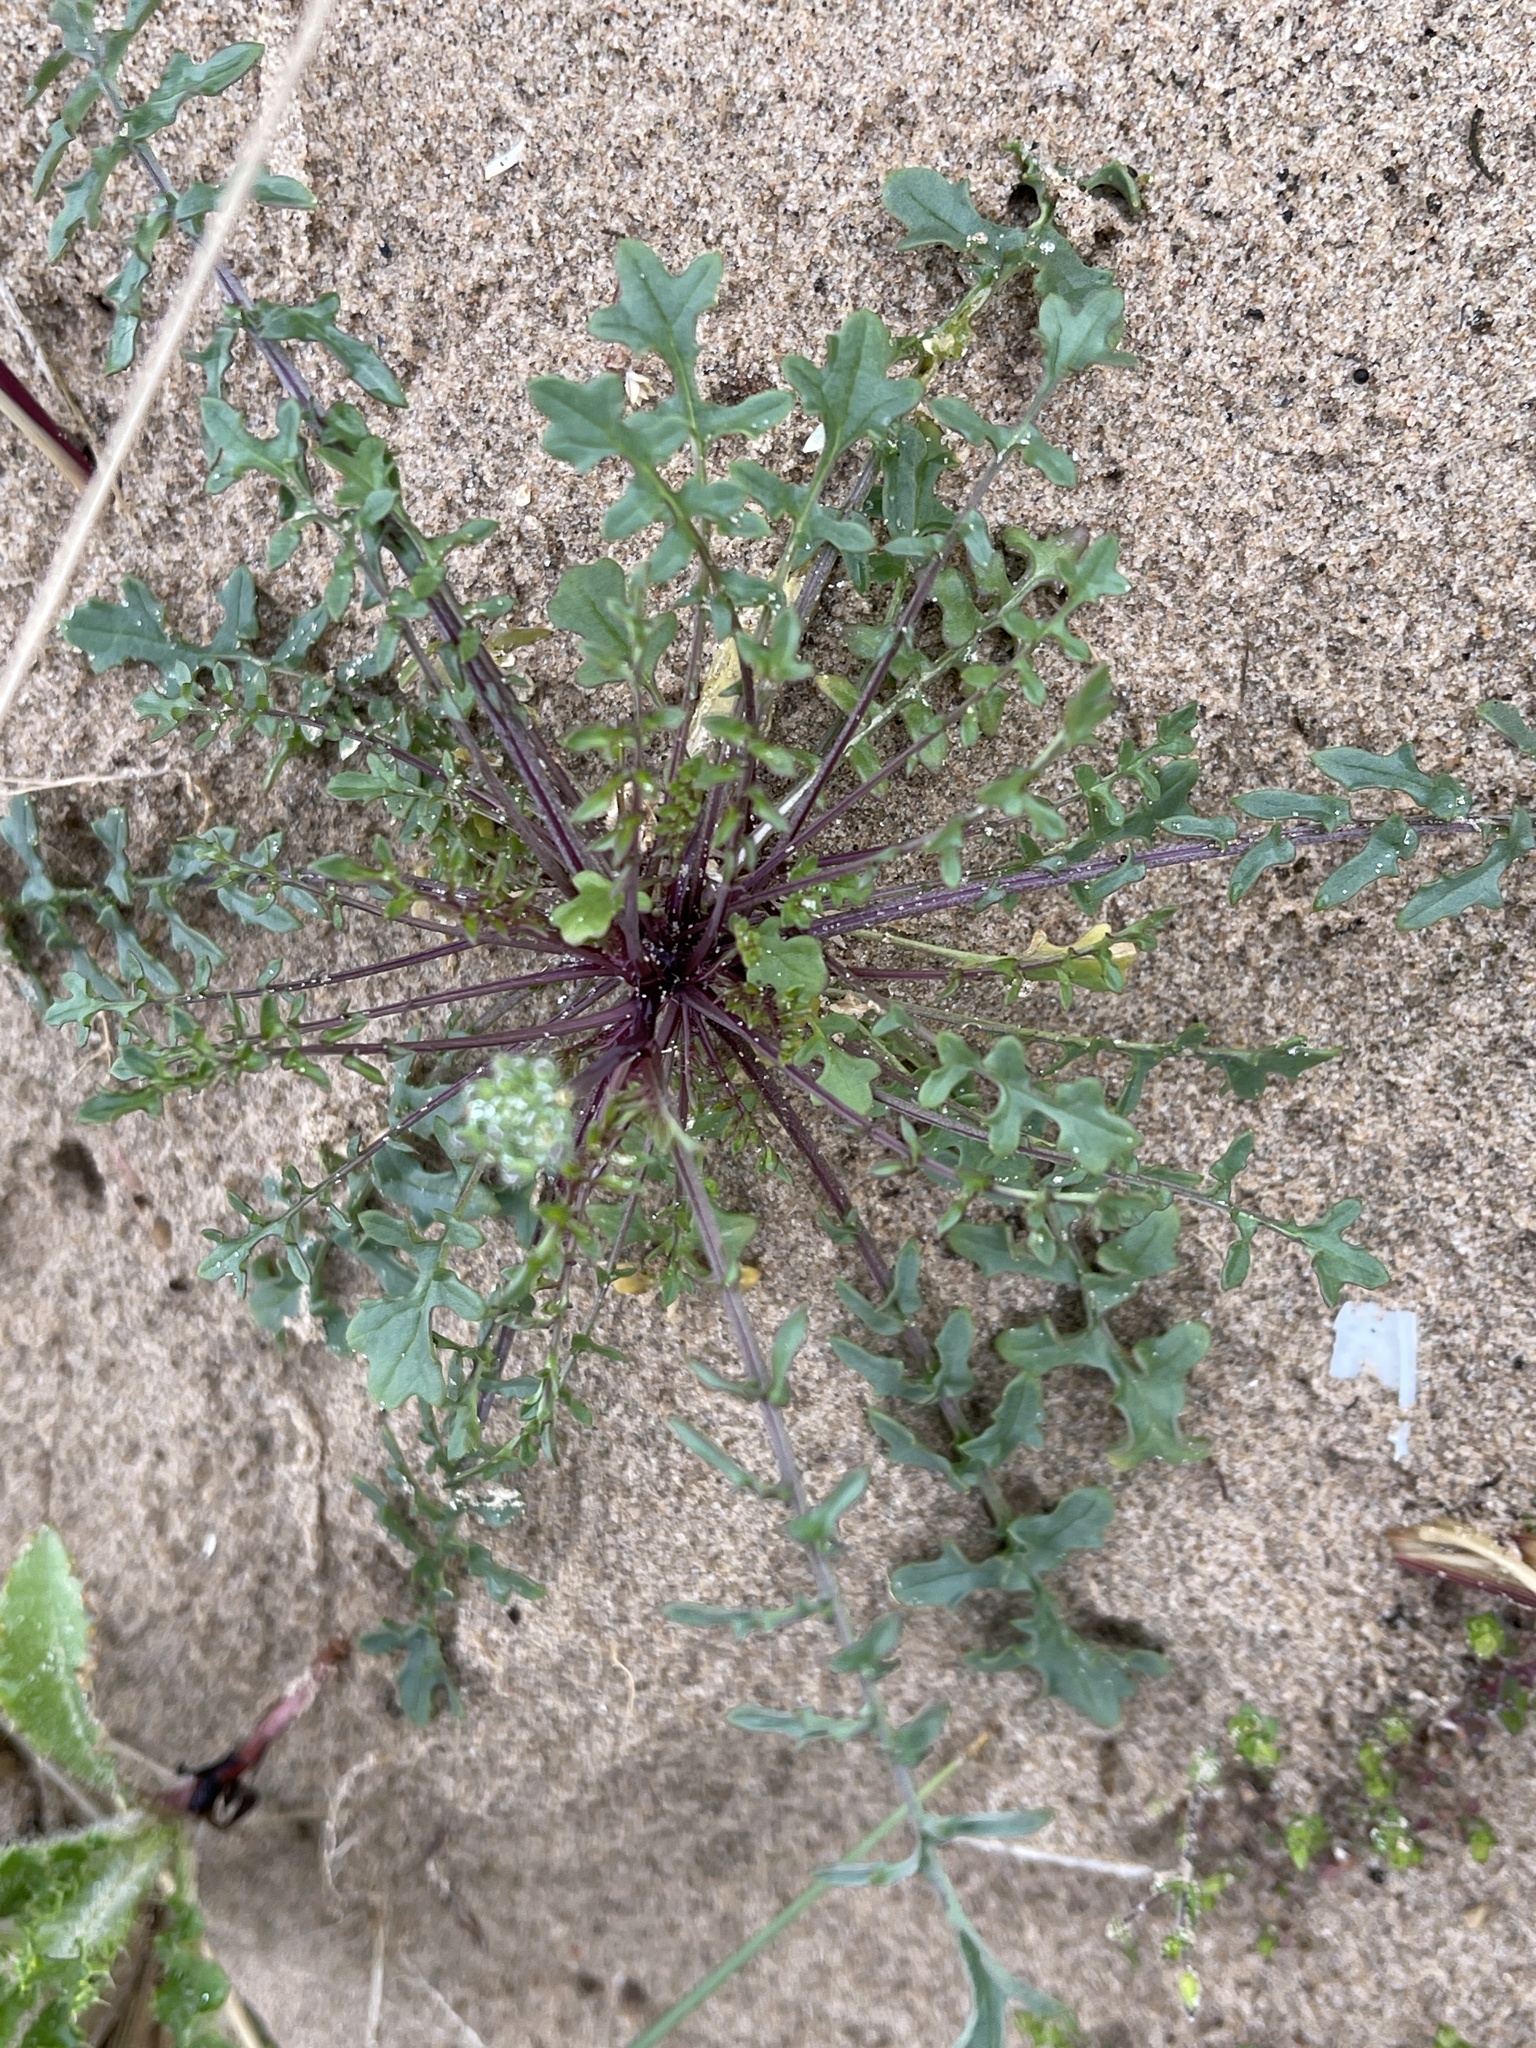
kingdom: Plantae
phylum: Tracheophyta
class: Magnoliopsida
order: Brassicales
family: Brassicaceae
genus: Coincya
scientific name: Coincya monensis
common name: Star-mustard
